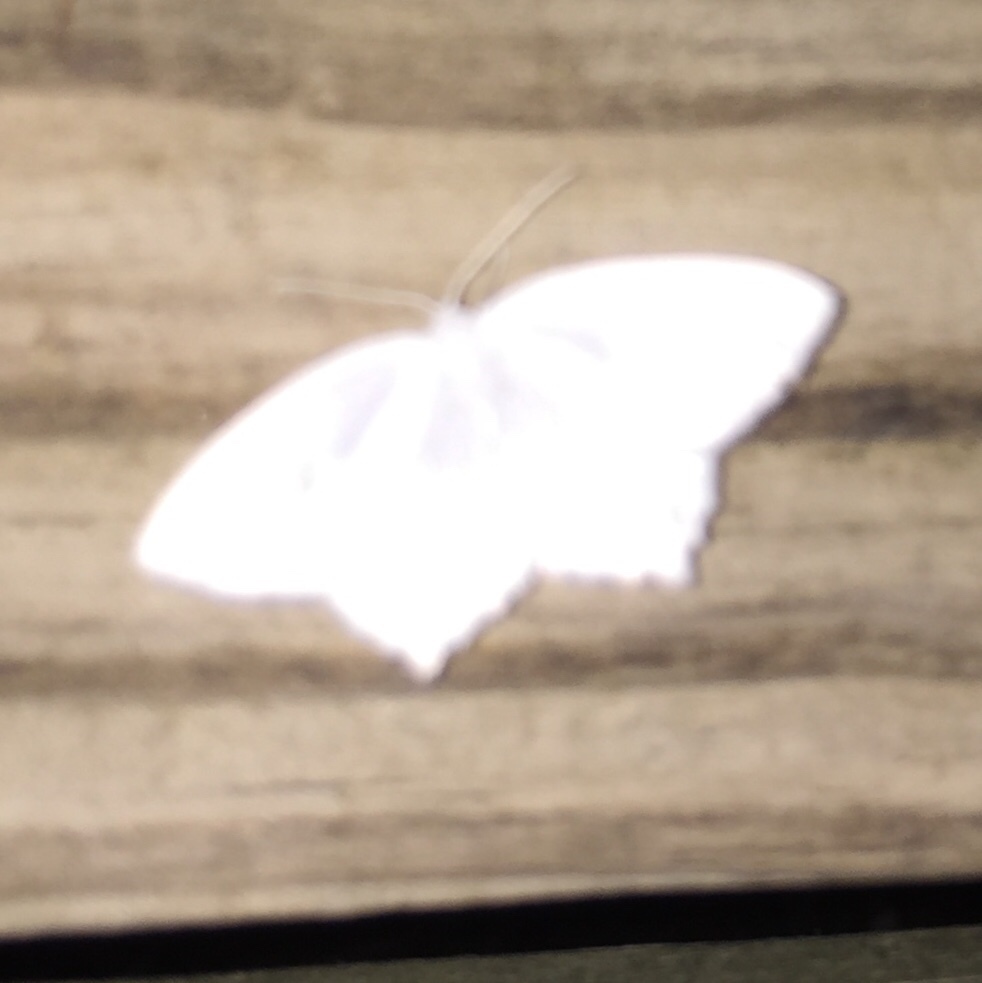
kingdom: Animalia
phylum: Arthropoda
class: Insecta
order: Lepidoptera
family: Geometridae
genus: Eugonobapta
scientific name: Eugonobapta nivosaria
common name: Snowy geometer
